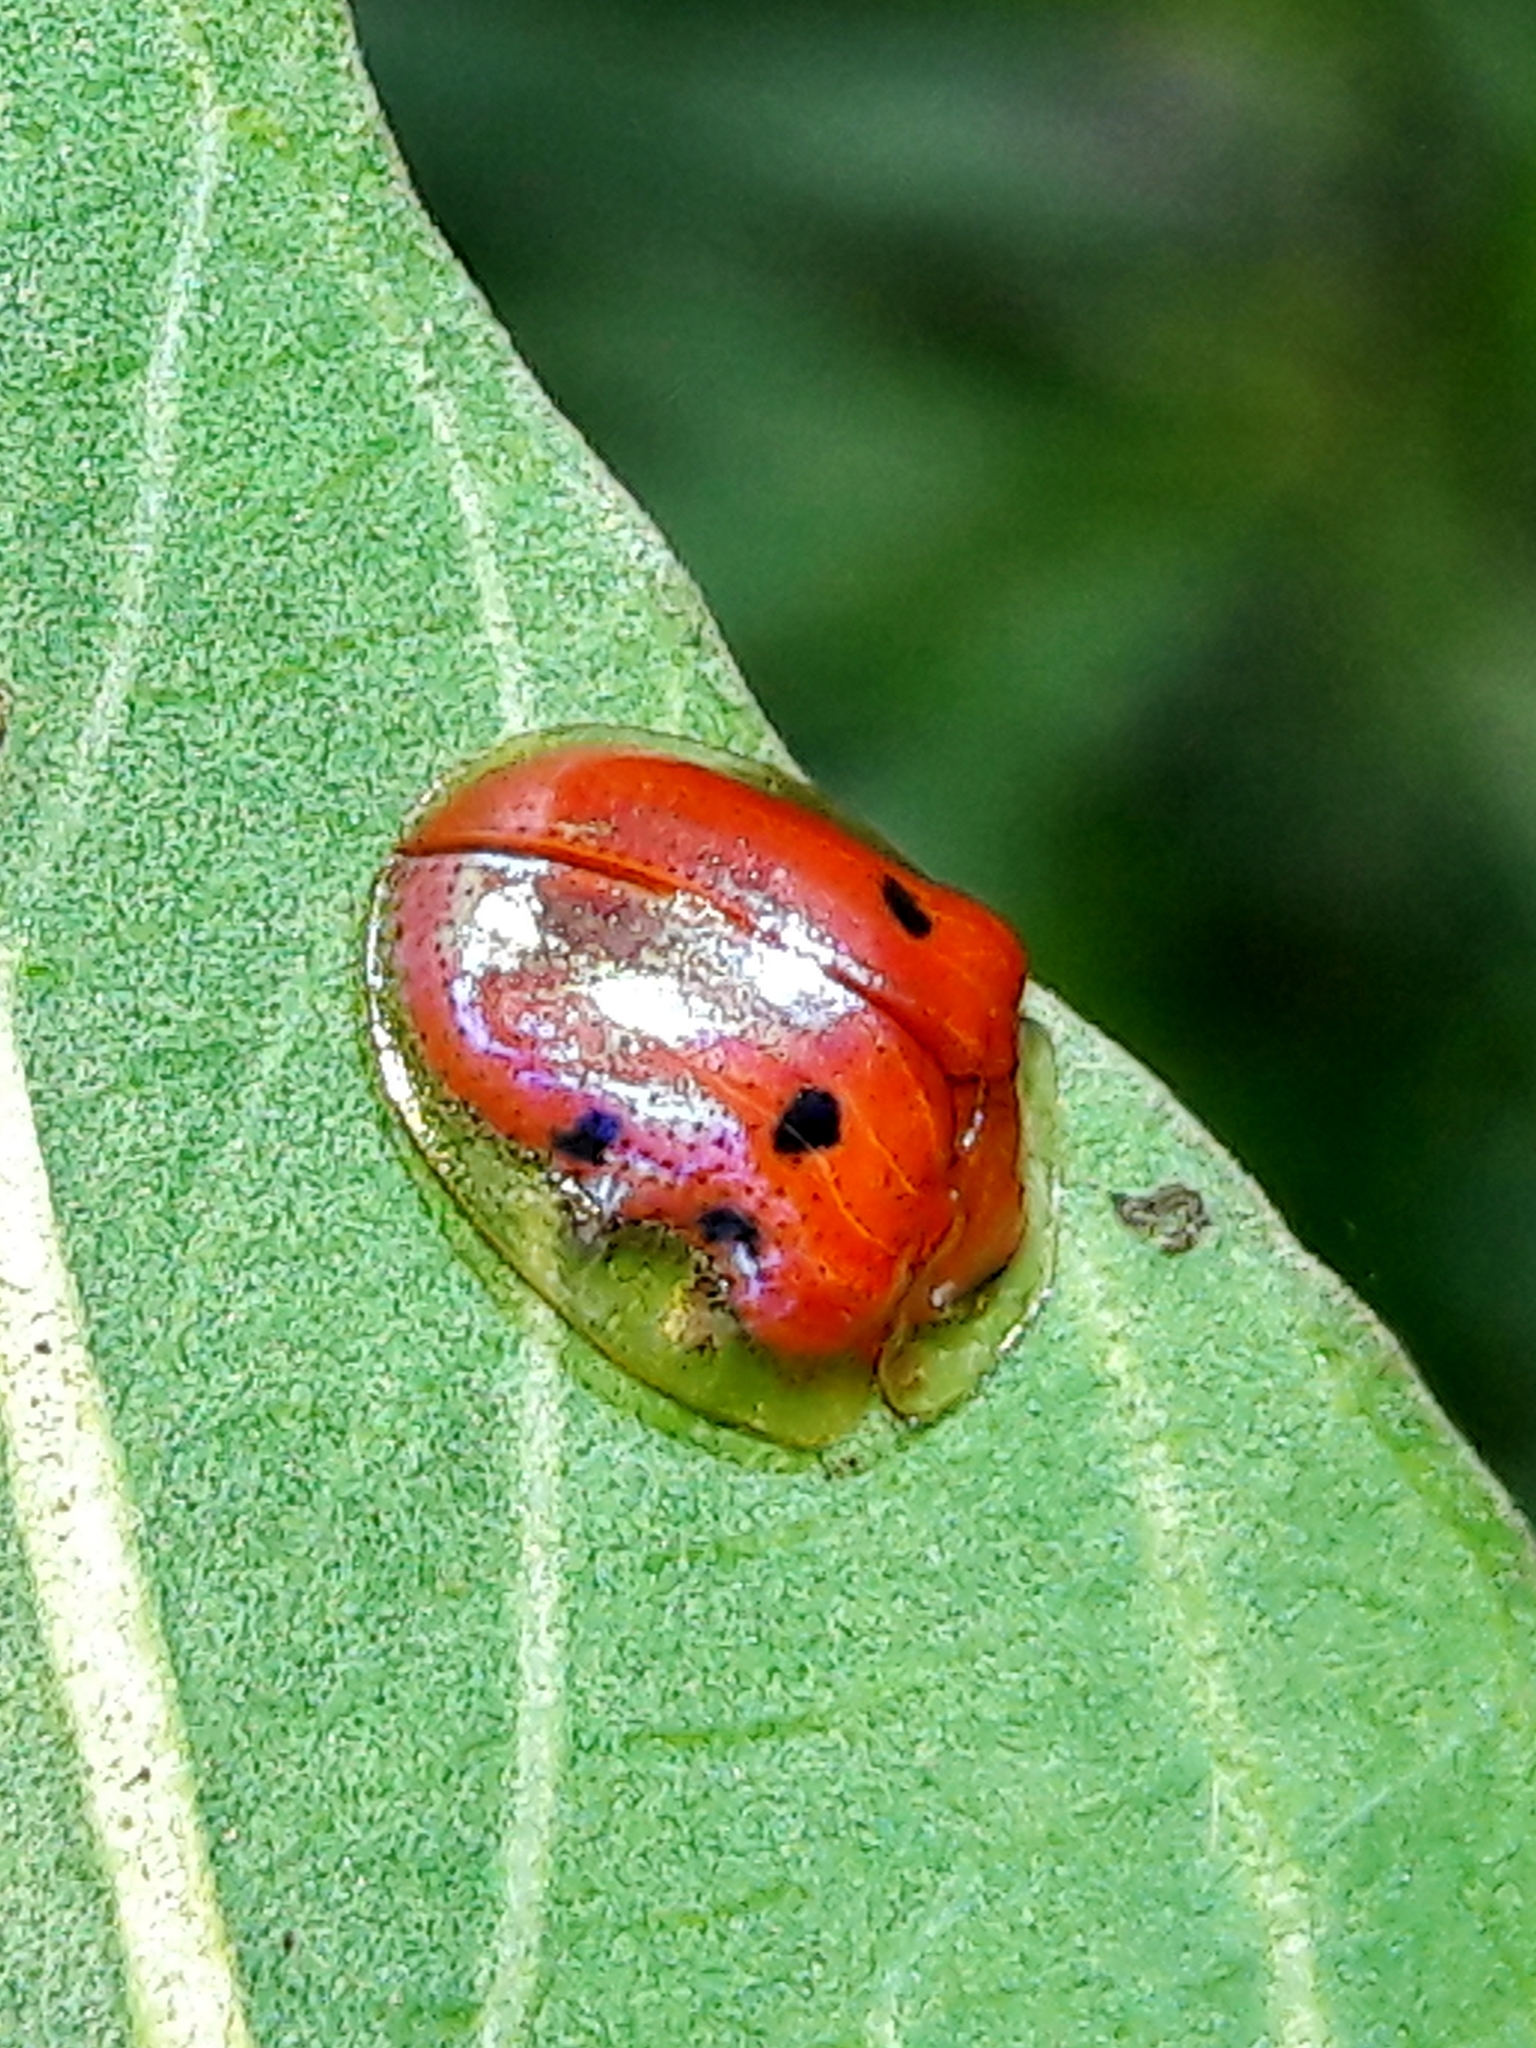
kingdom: Animalia
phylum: Arthropoda
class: Insecta
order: Coleoptera
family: Chrysomelidae
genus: Charidotella
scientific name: Charidotella sexpunctata
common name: Golden tortoise beetle
